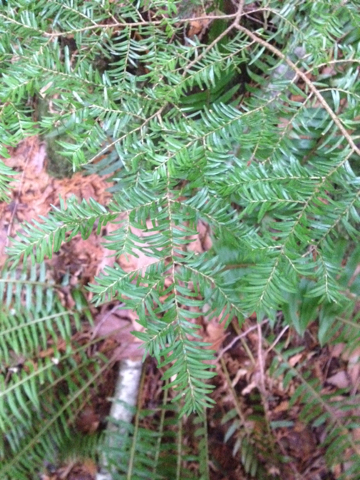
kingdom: Plantae
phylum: Tracheophyta
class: Pinopsida
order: Pinales
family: Pinaceae
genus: Tsuga
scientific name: Tsuga heterophylla
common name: Western hemlock
